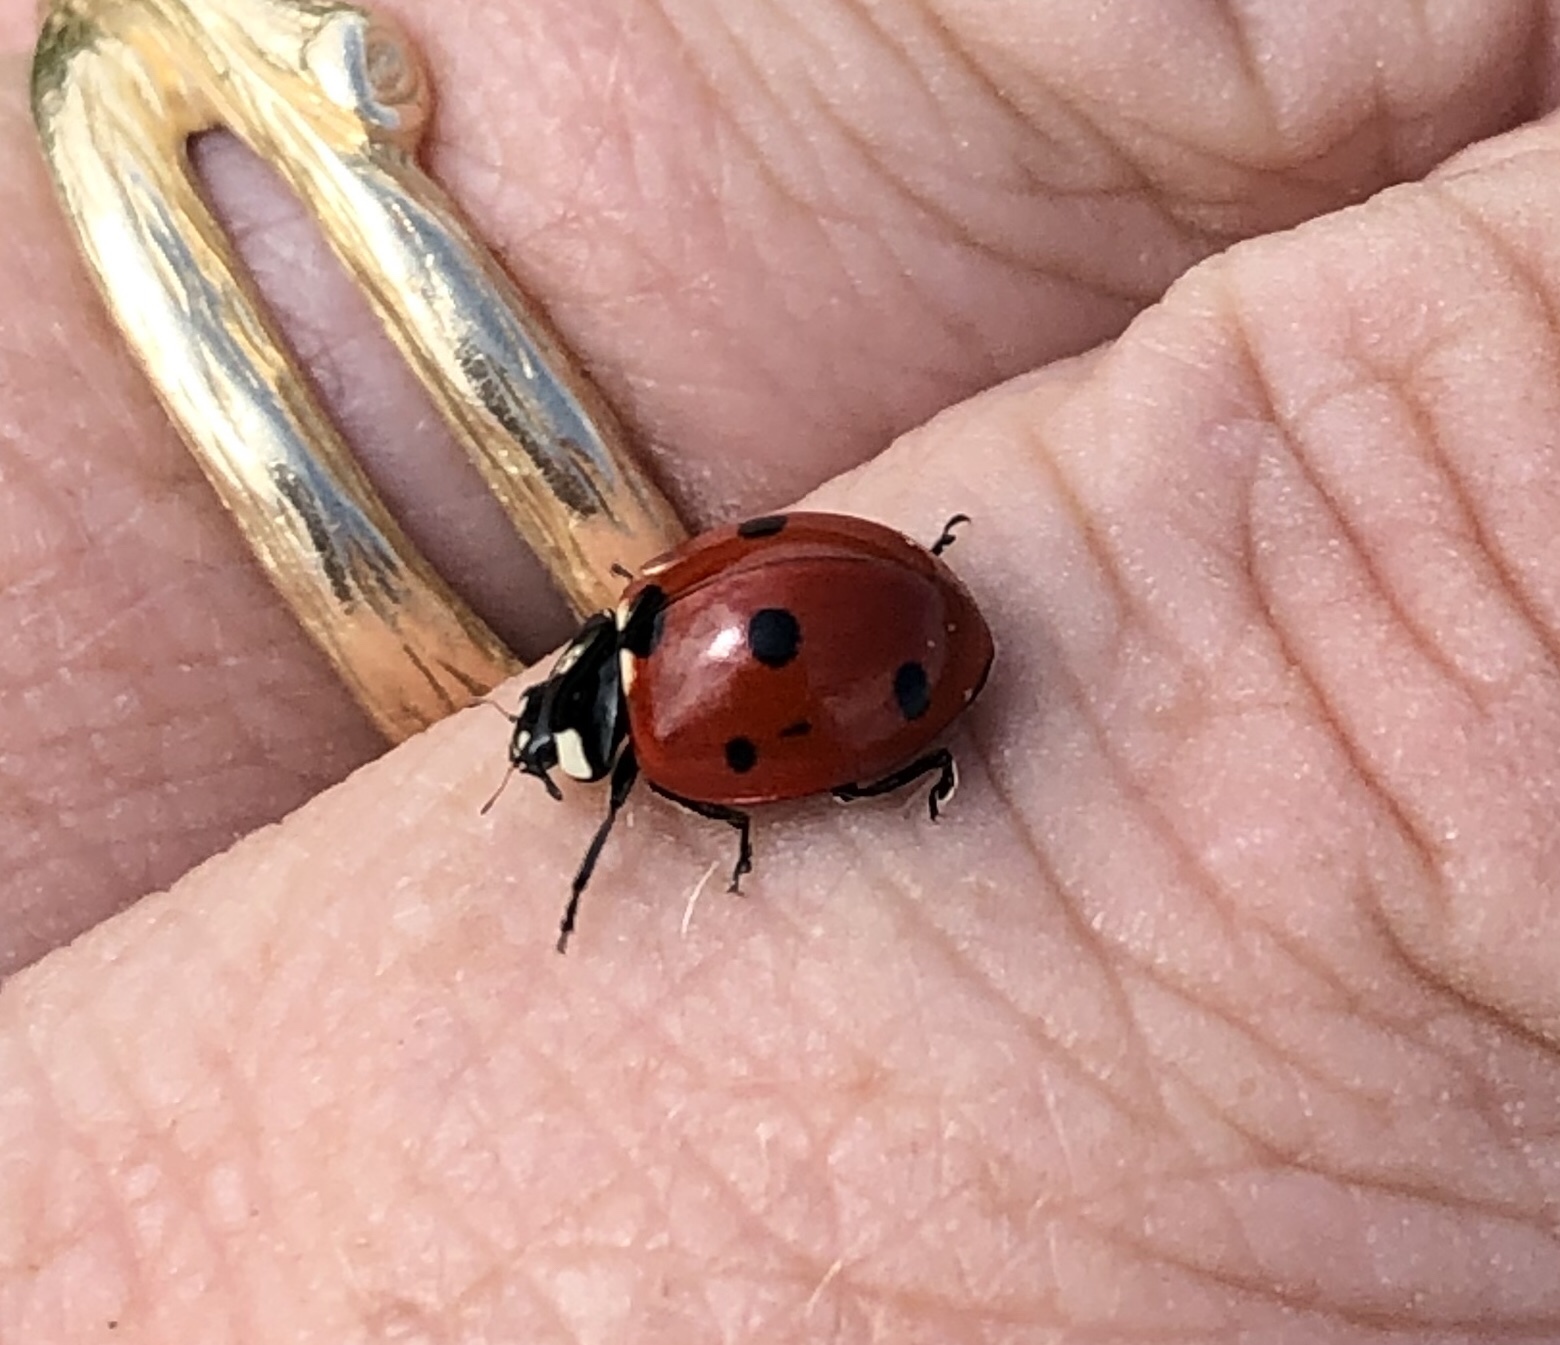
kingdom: Animalia
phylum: Arthropoda
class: Insecta
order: Coleoptera
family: Coccinellidae
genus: Coccinella
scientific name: Coccinella septempunctata
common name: Sevenspotted lady beetle
